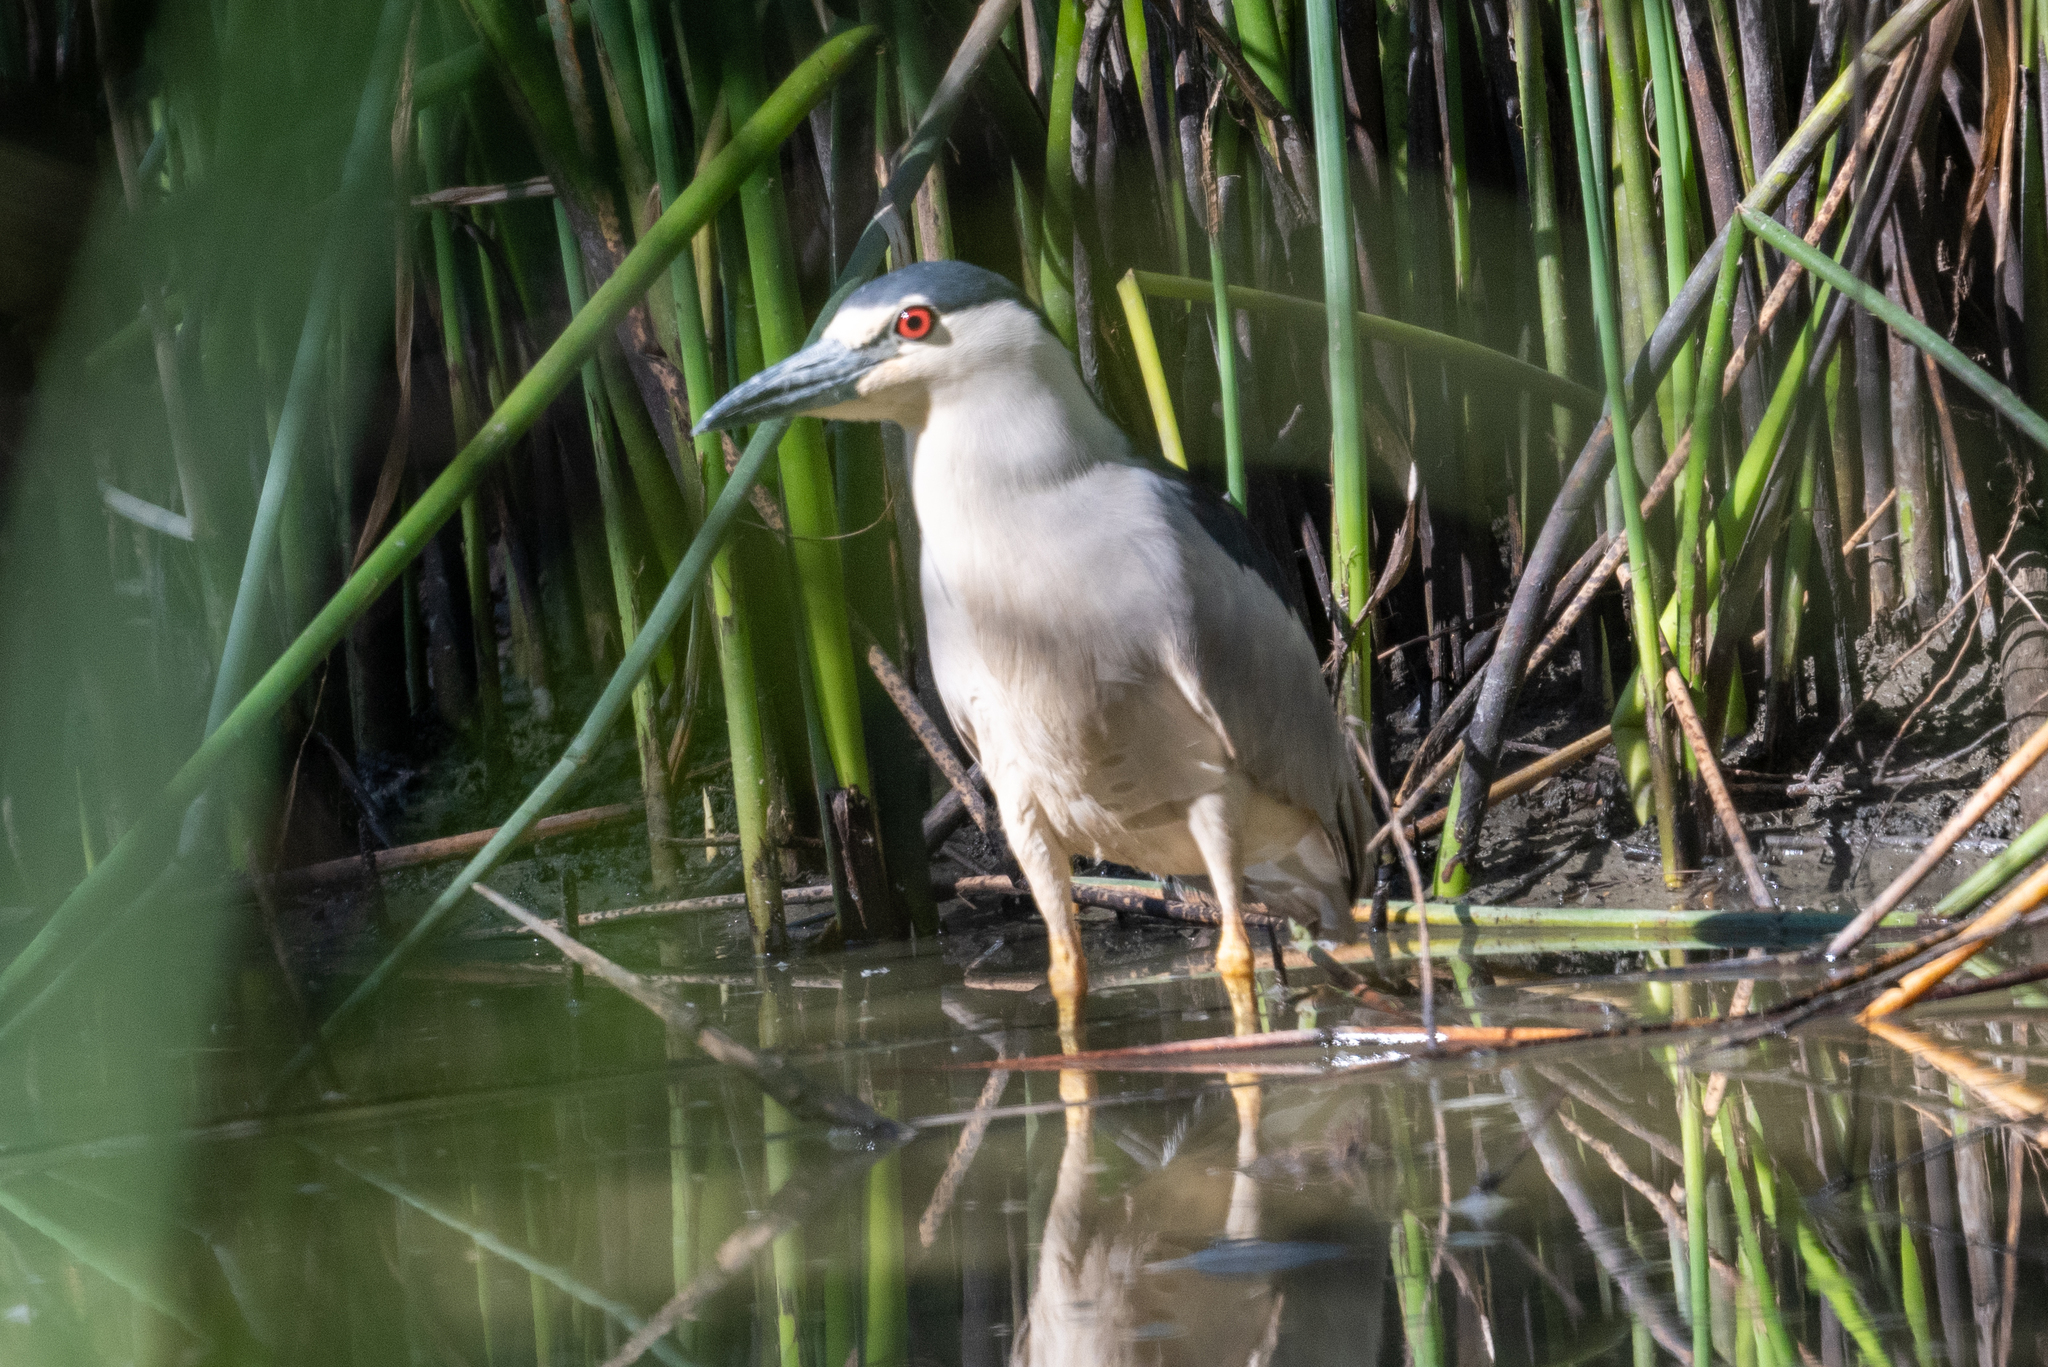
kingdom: Animalia
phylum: Chordata
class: Aves
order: Pelecaniformes
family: Ardeidae
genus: Nycticorax
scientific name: Nycticorax nycticorax
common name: Black-crowned night heron
